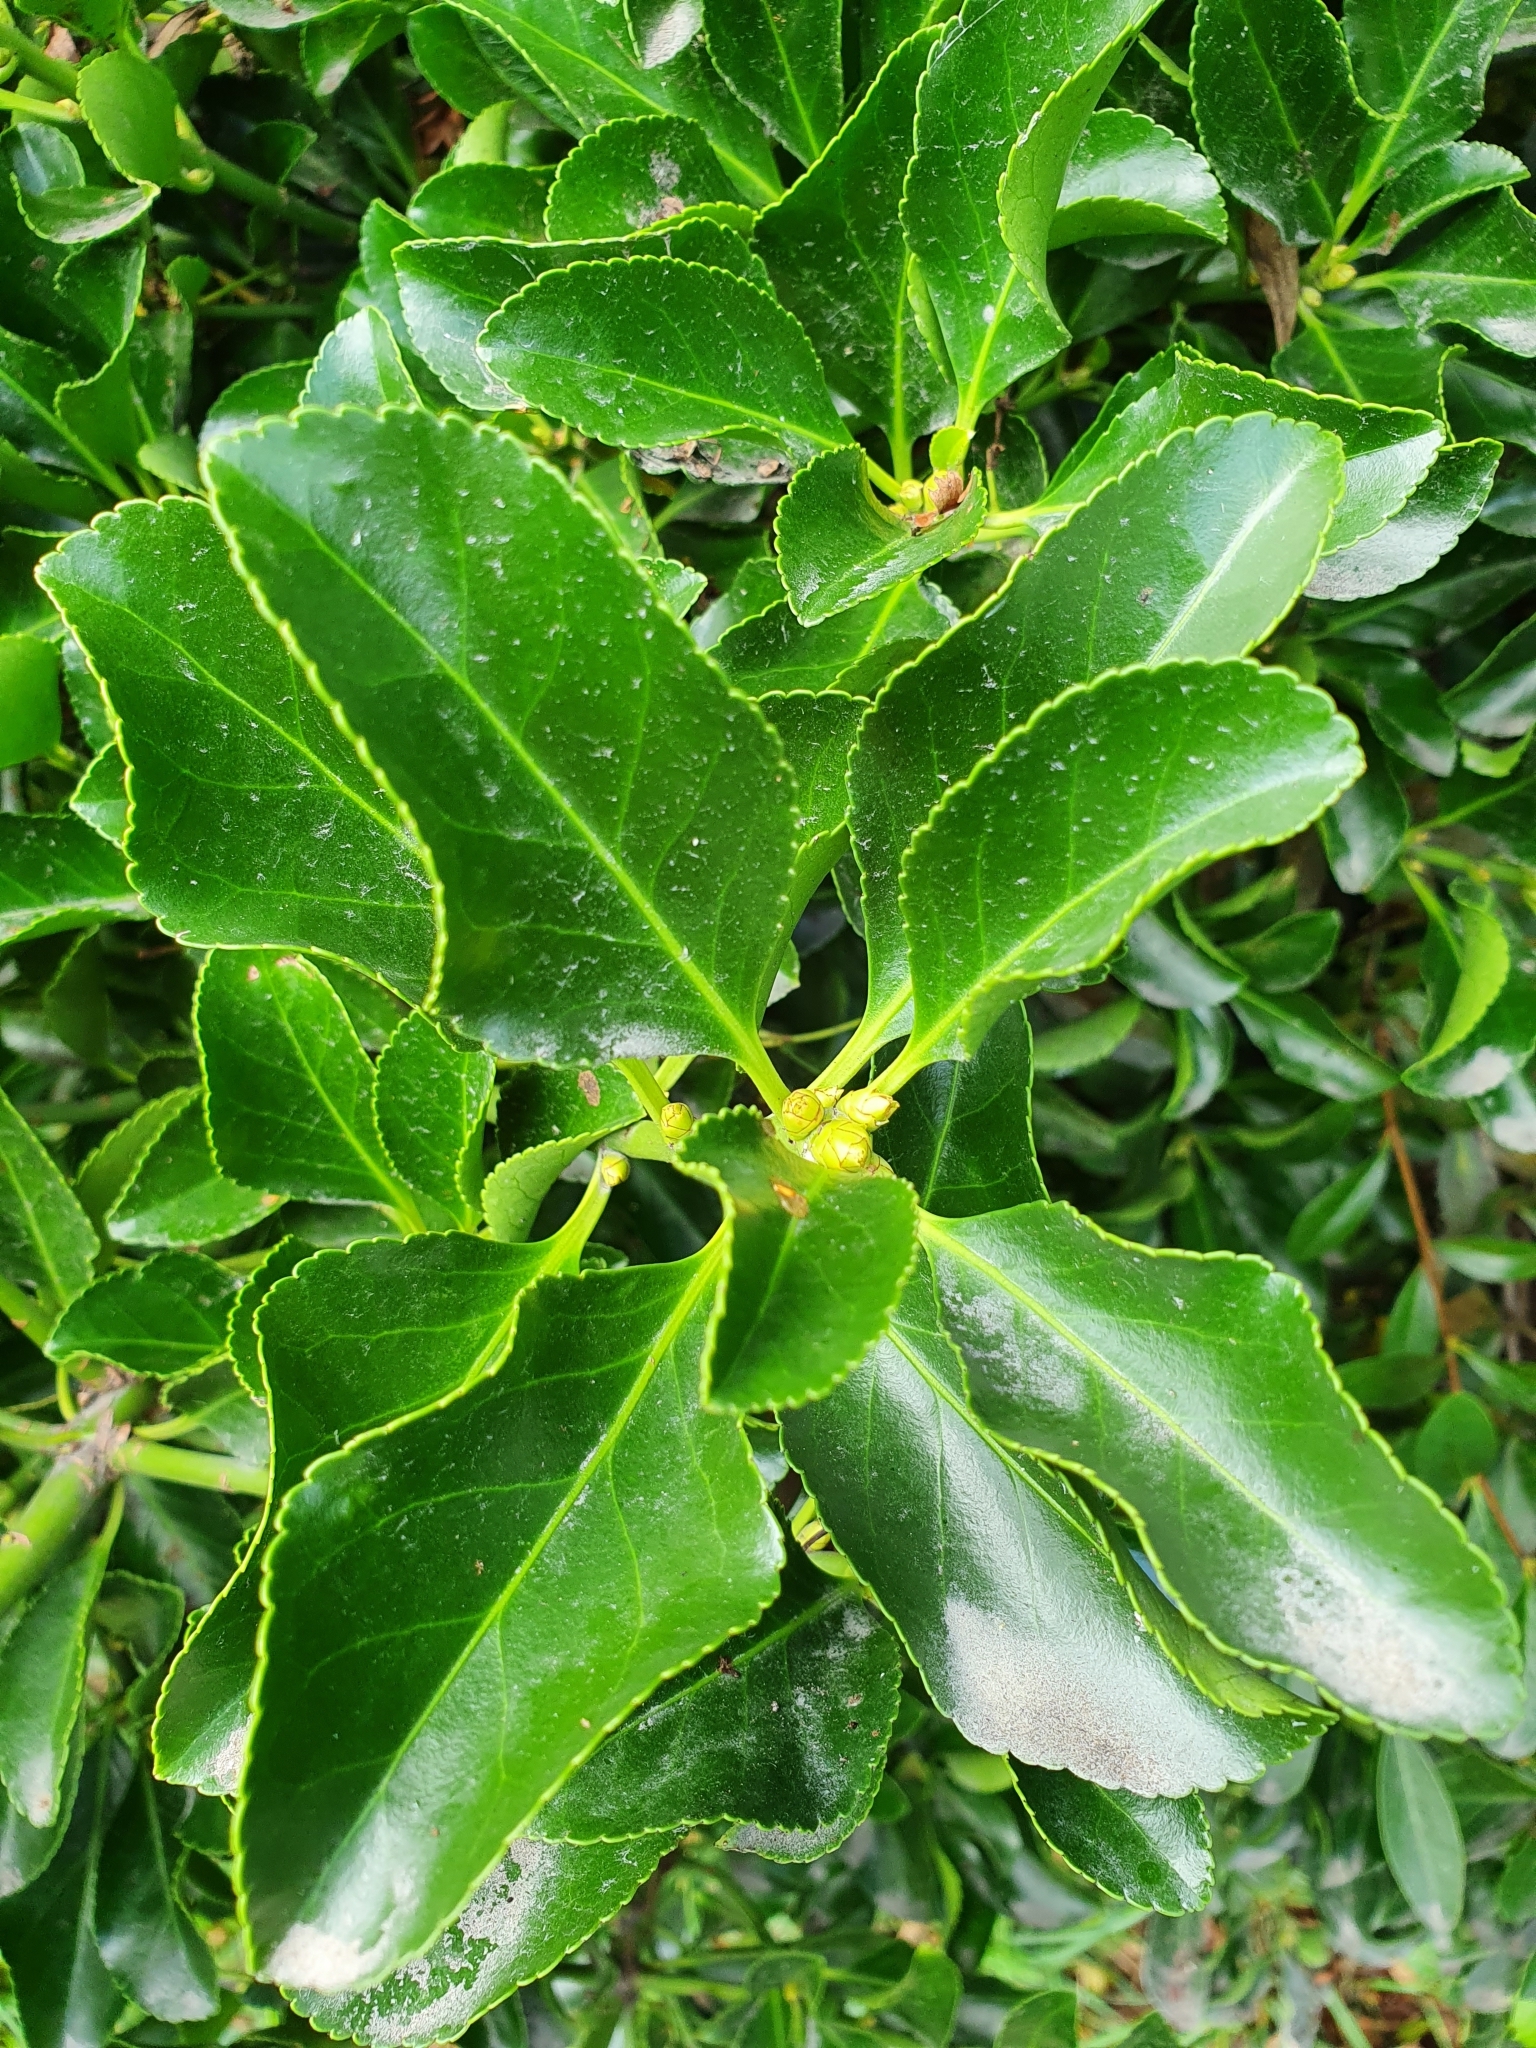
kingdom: Plantae
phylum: Tracheophyta
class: Magnoliopsida
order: Celastrales
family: Celastraceae
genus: Euonymus
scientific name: Euonymus japonicus
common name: Japanese spindletree
